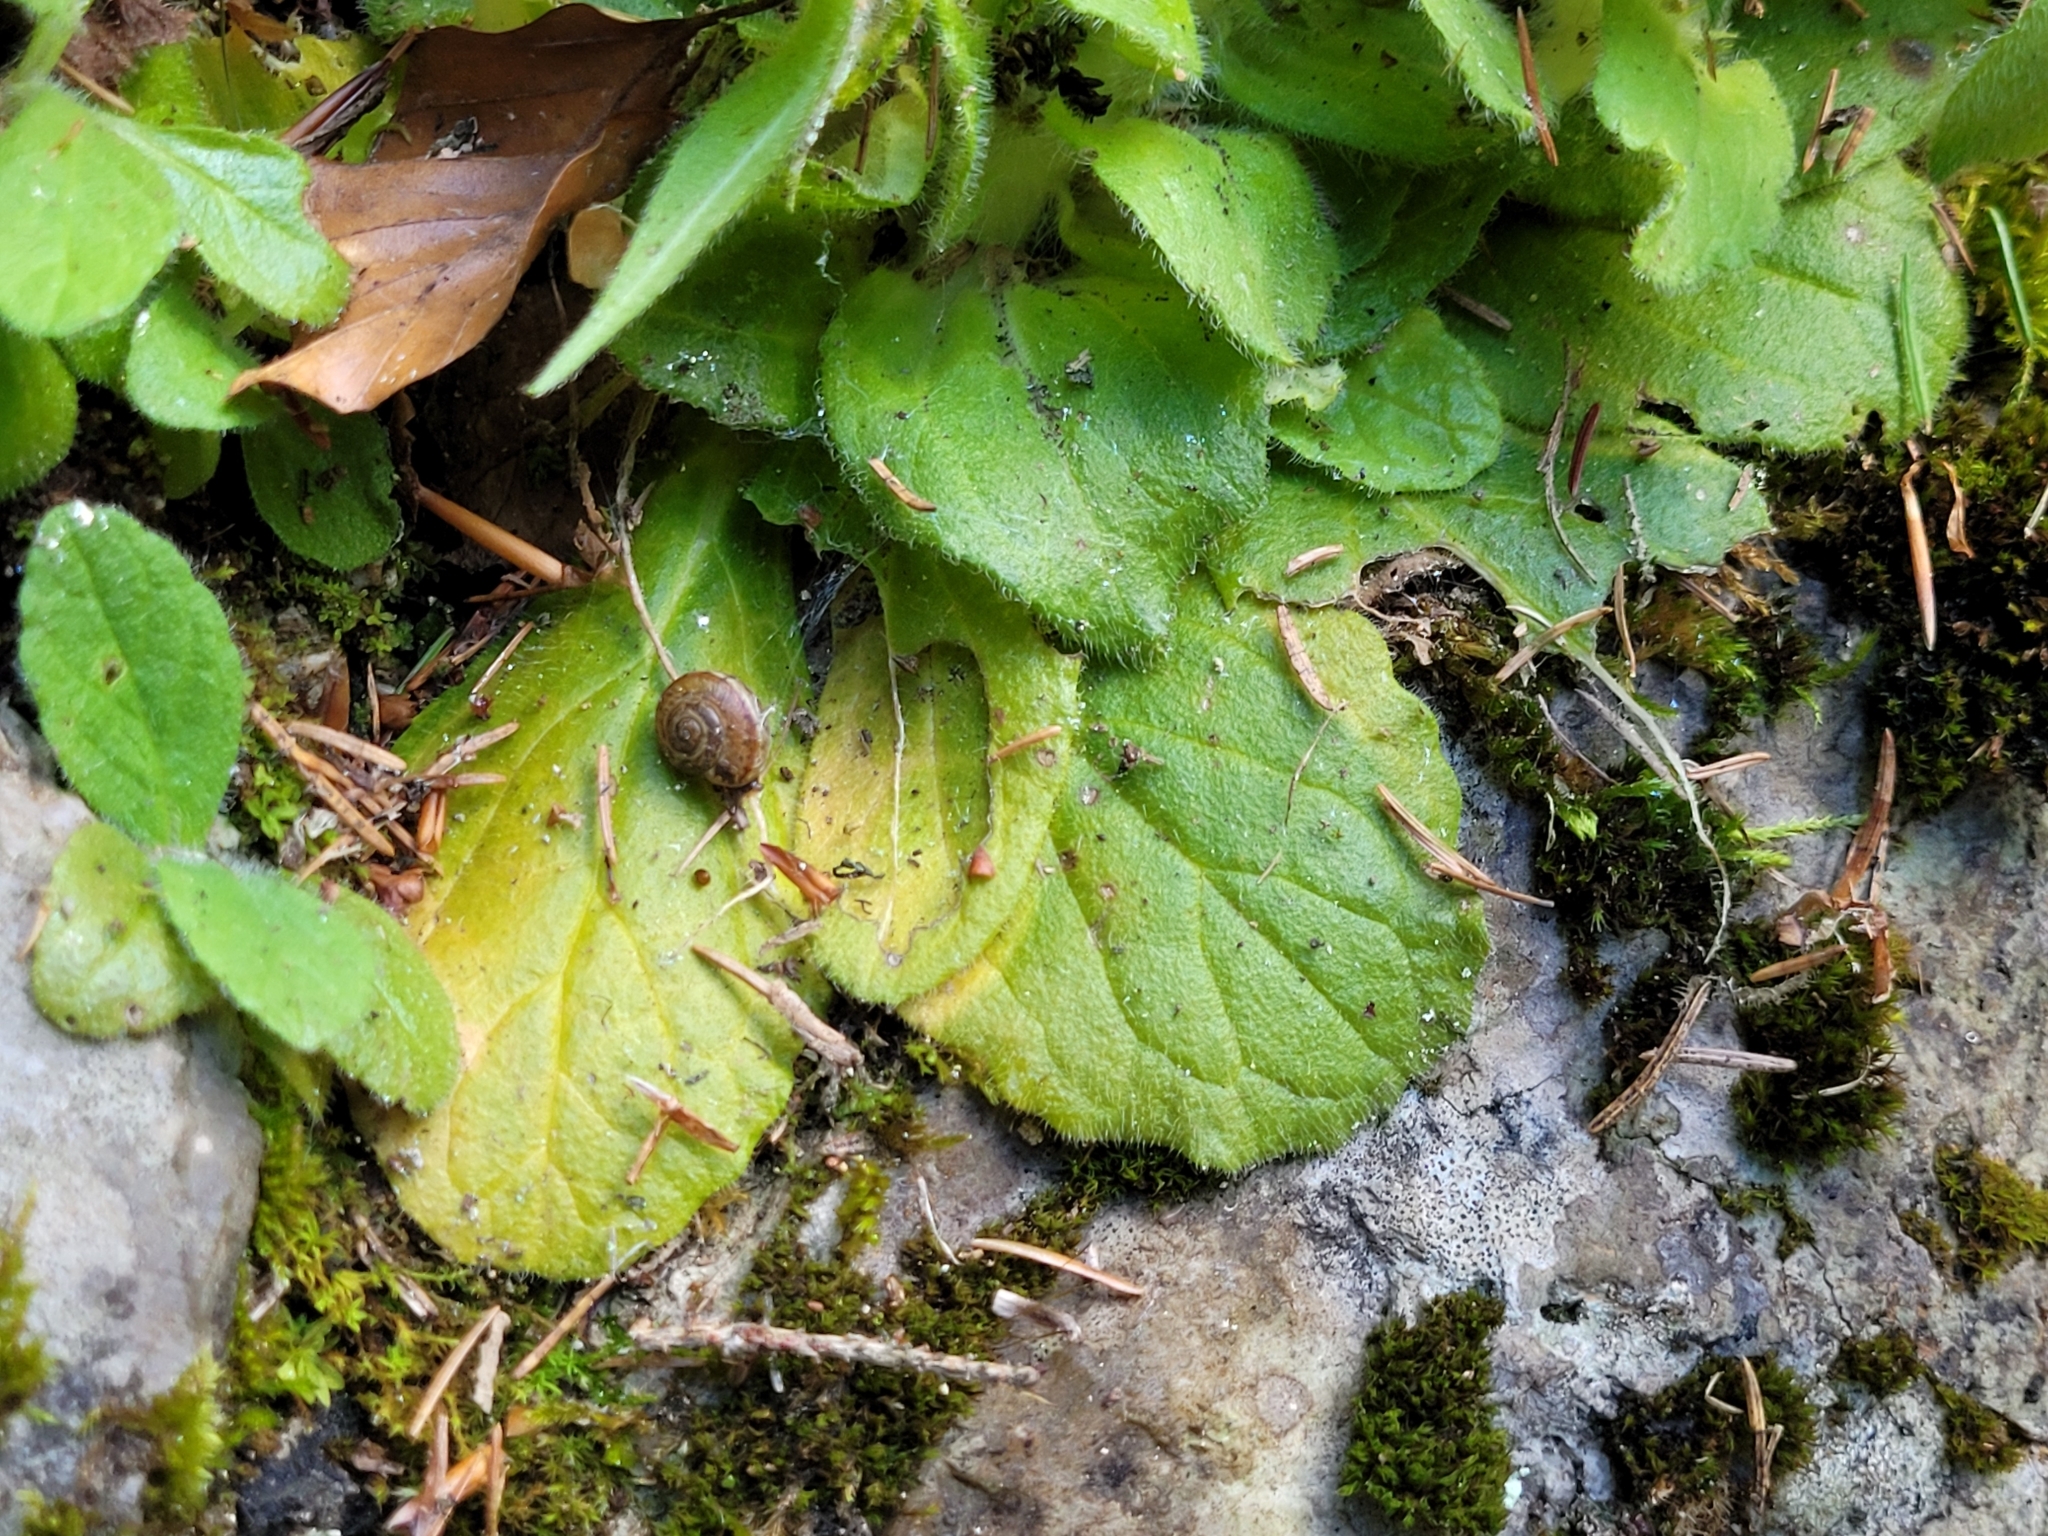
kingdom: Plantae
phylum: Tracheophyta
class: Magnoliopsida
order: Lamiales
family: Lamiaceae
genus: Ajuga
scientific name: Ajuga pyramidalis
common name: Pyramid bugle
